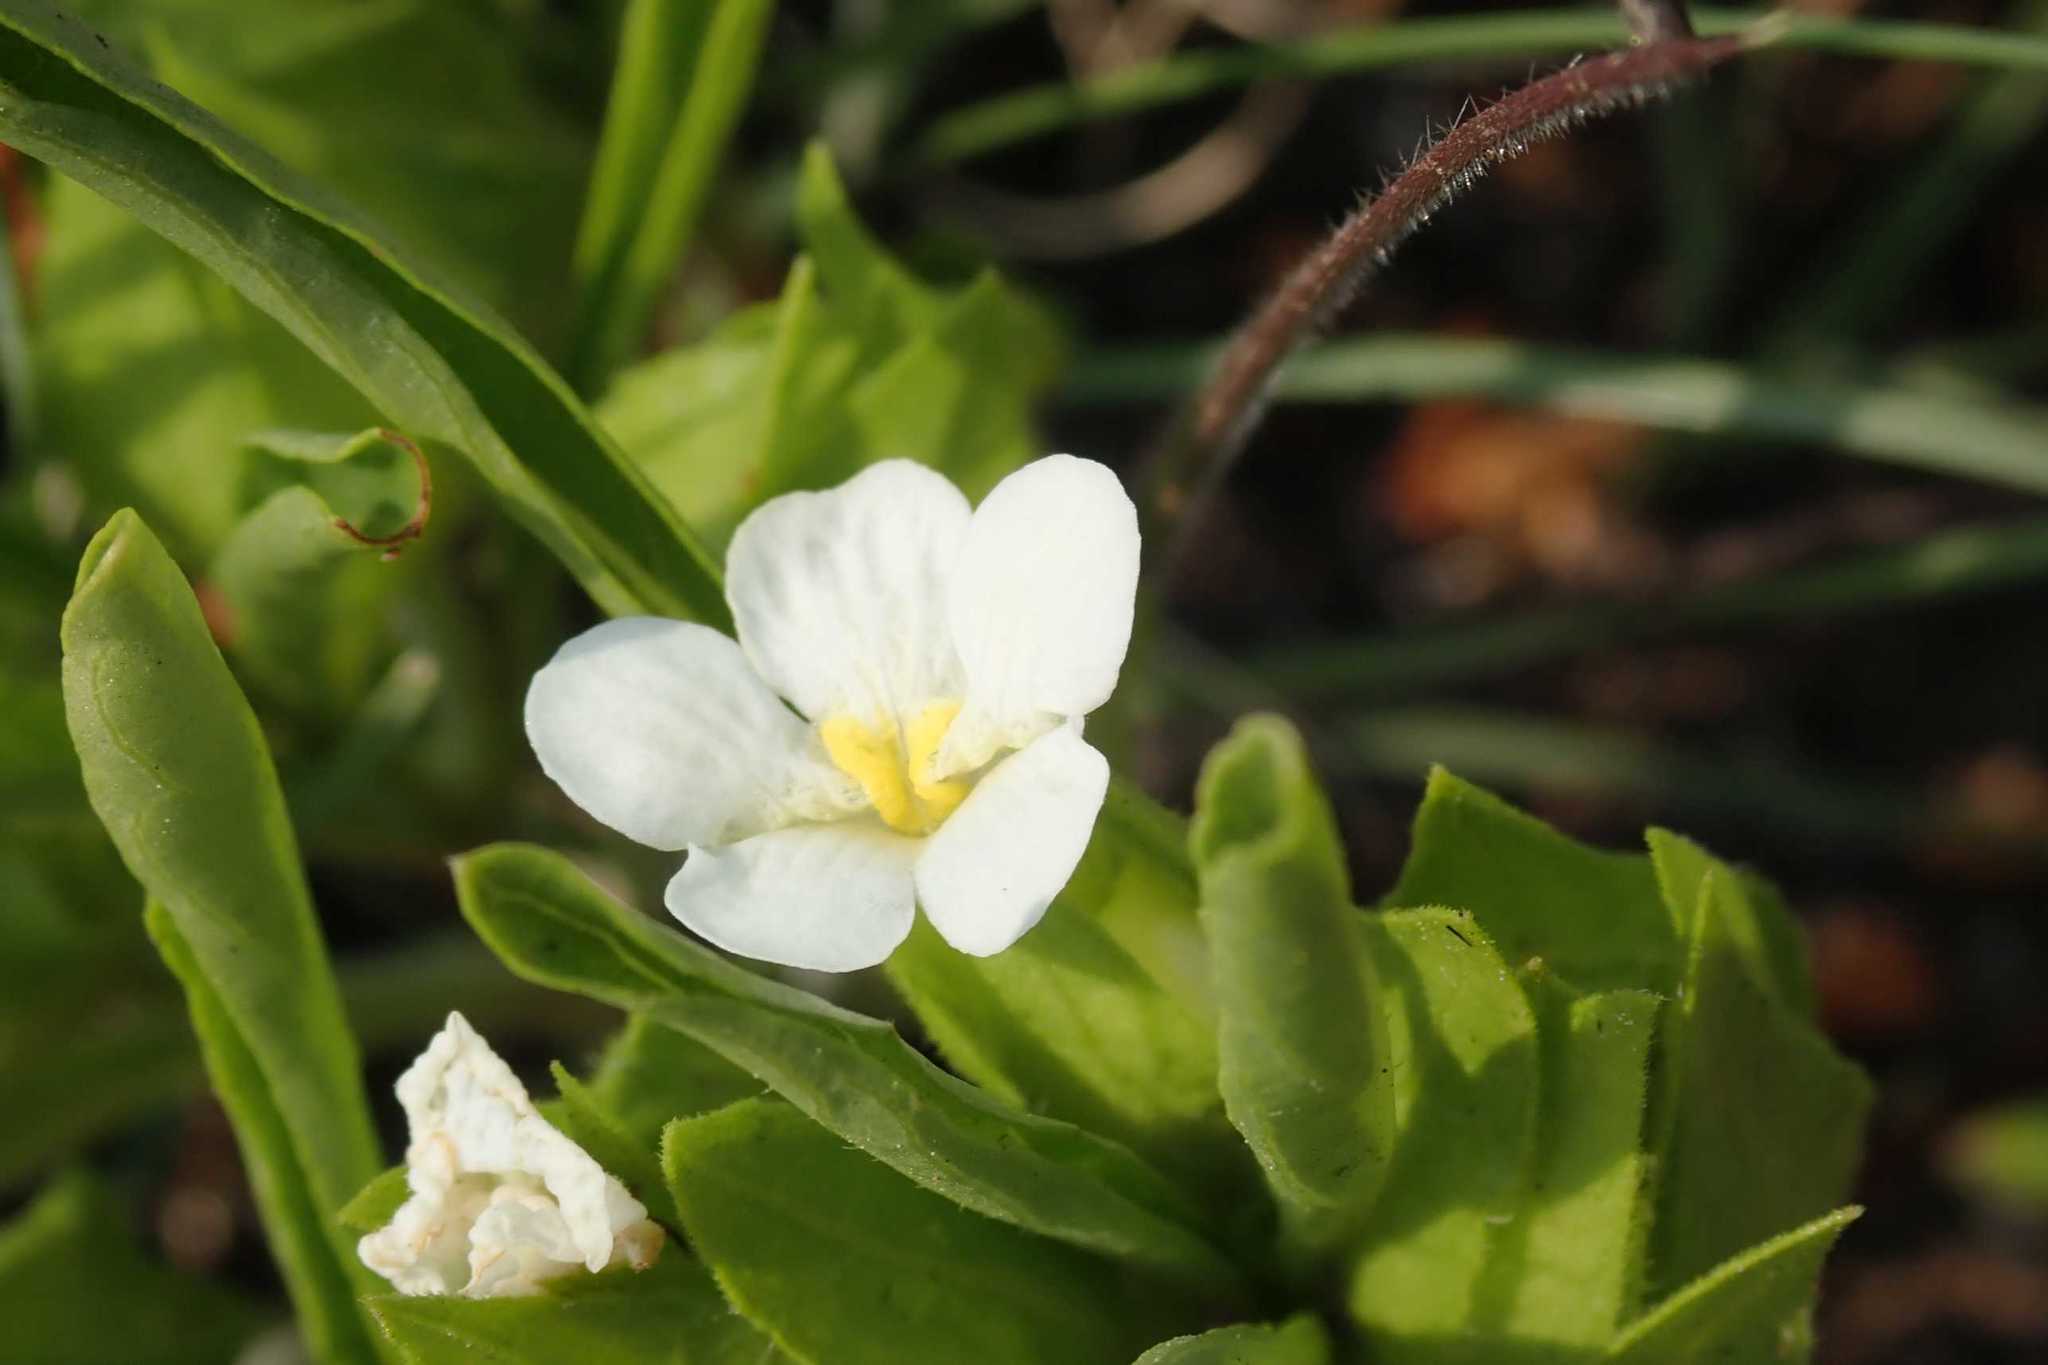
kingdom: Plantae
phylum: Tracheophyta
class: Magnoliopsida
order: Lamiales
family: Acanthaceae
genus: Crabbea
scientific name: Crabbea nana
